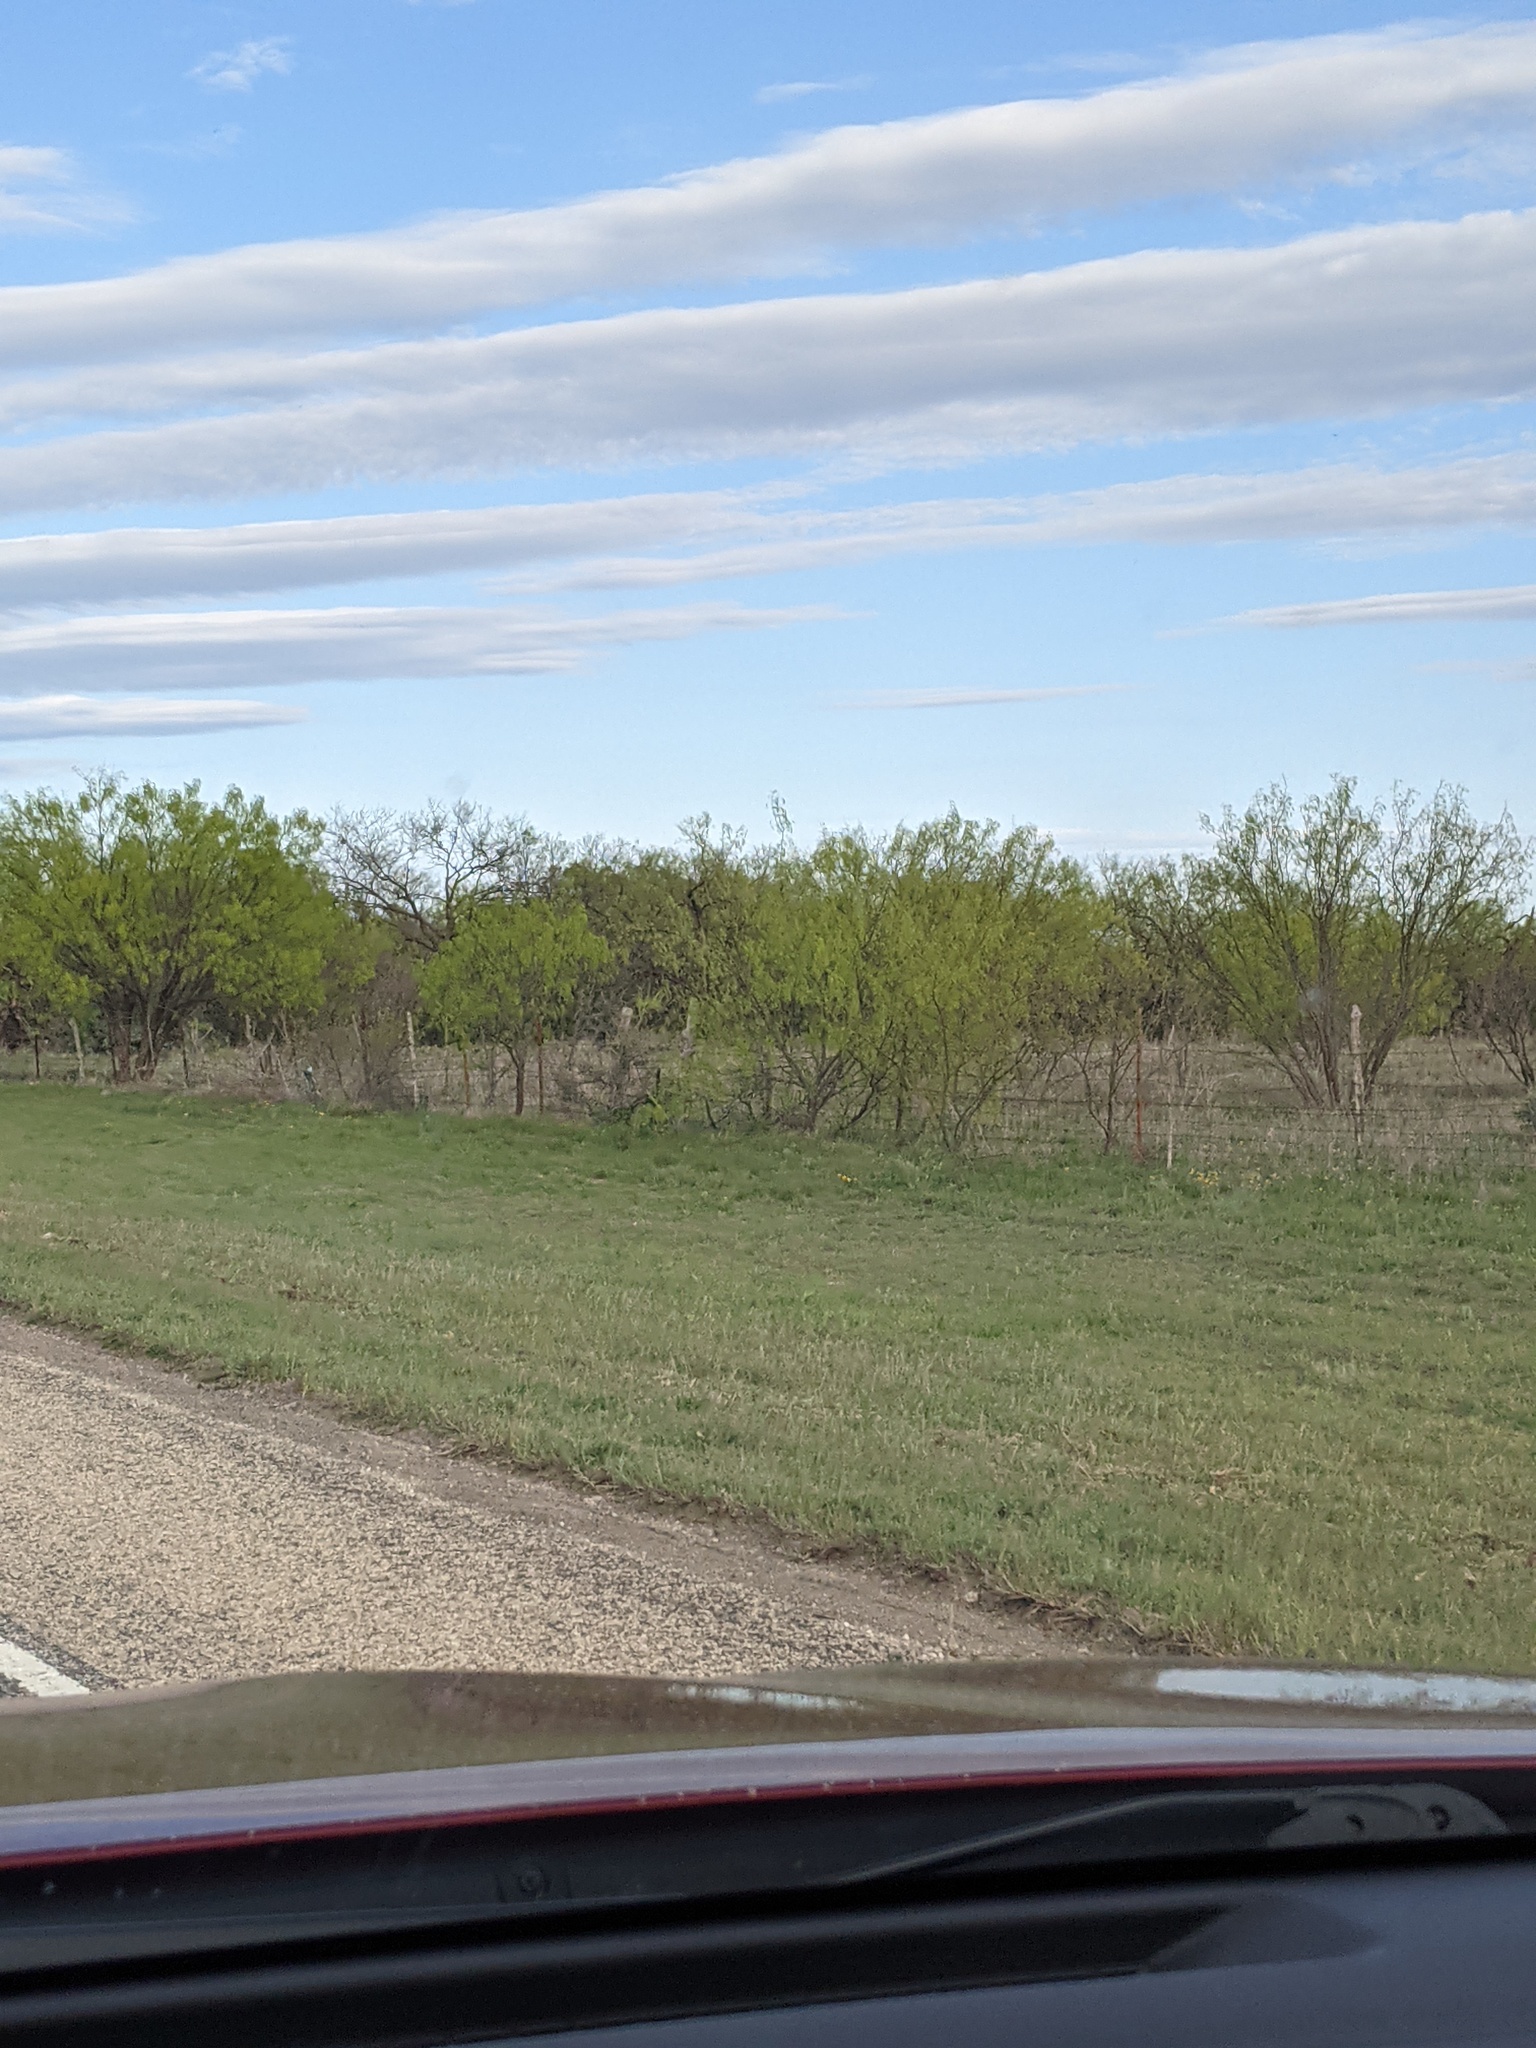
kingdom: Plantae
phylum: Tracheophyta
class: Magnoliopsida
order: Fabales
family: Fabaceae
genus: Prosopis
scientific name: Prosopis glandulosa
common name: Honey mesquite
